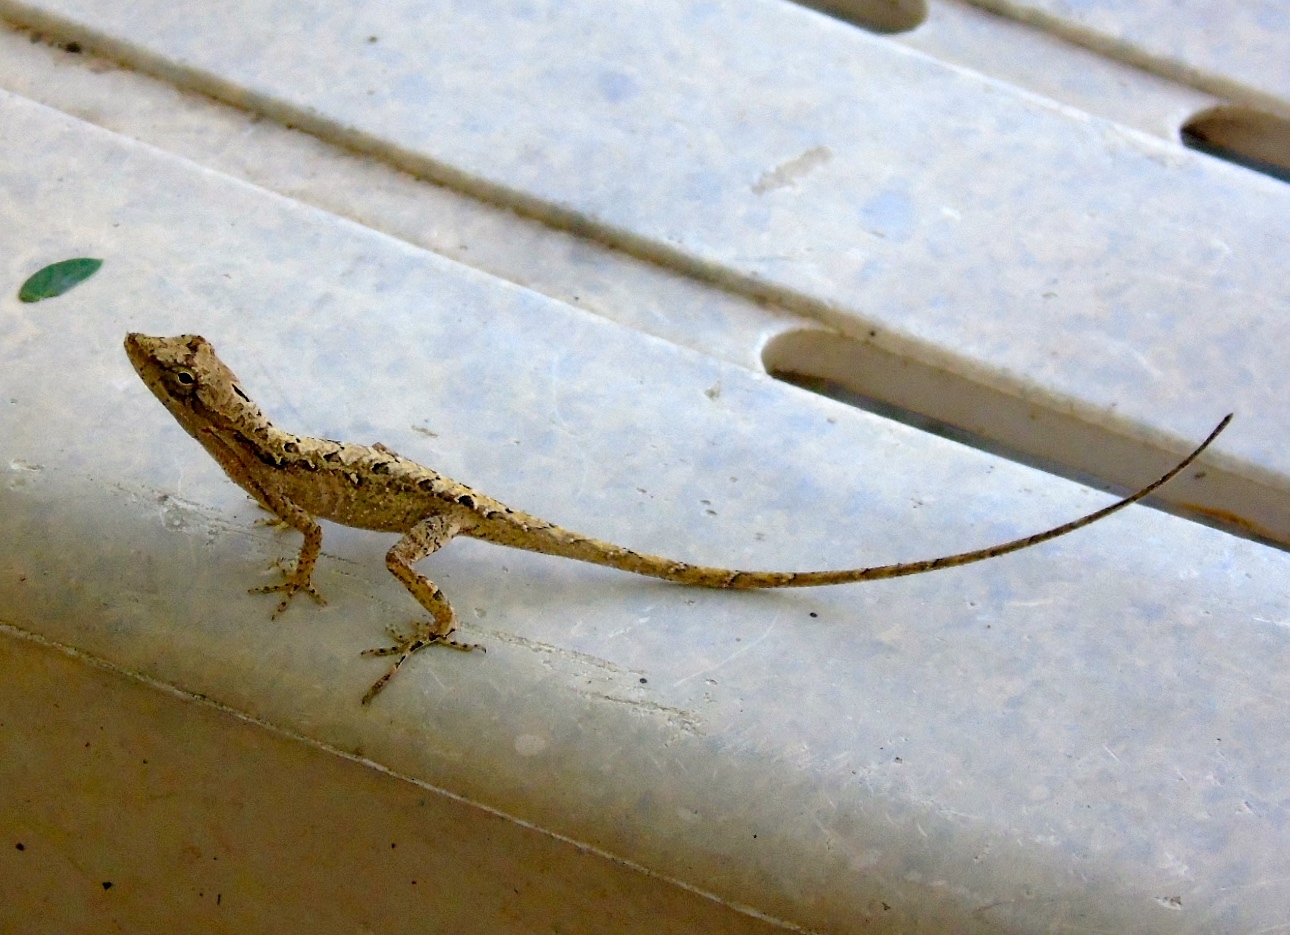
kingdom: Animalia
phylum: Chordata
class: Squamata
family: Dactyloidae
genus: Anolis
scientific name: Anolis nebulosus
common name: Clouded anole
